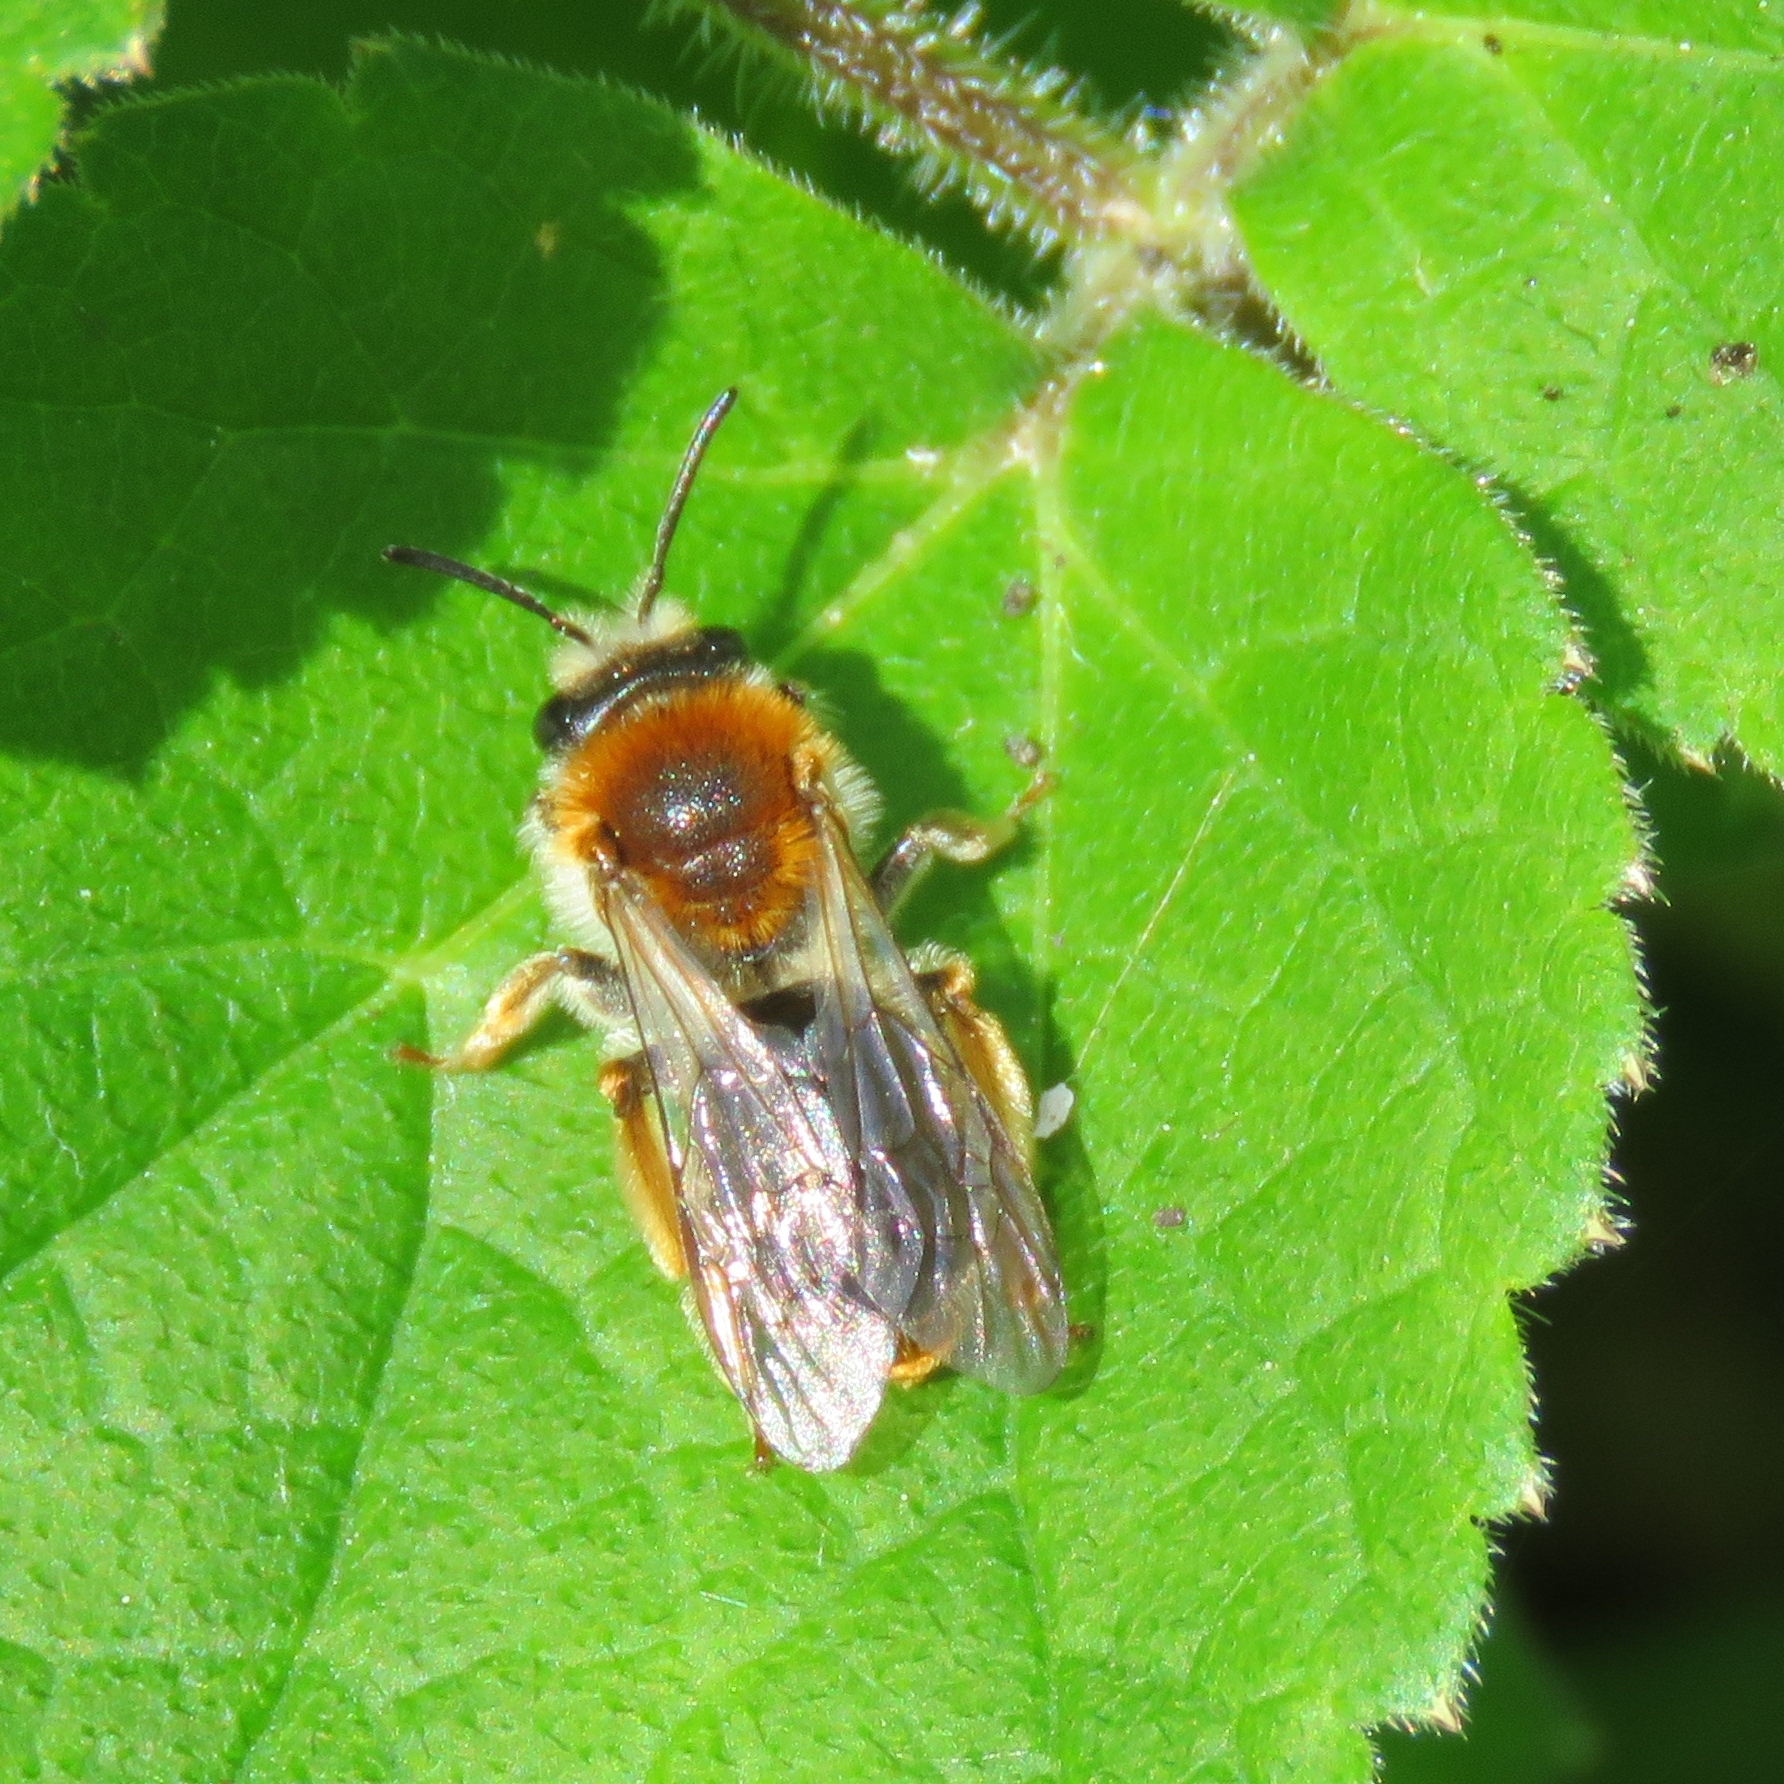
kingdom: Animalia
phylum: Arthropoda
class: Insecta
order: Hymenoptera
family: Andrenidae
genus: Andrena
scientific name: Andrena haemorrhoa
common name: Early mining bee
